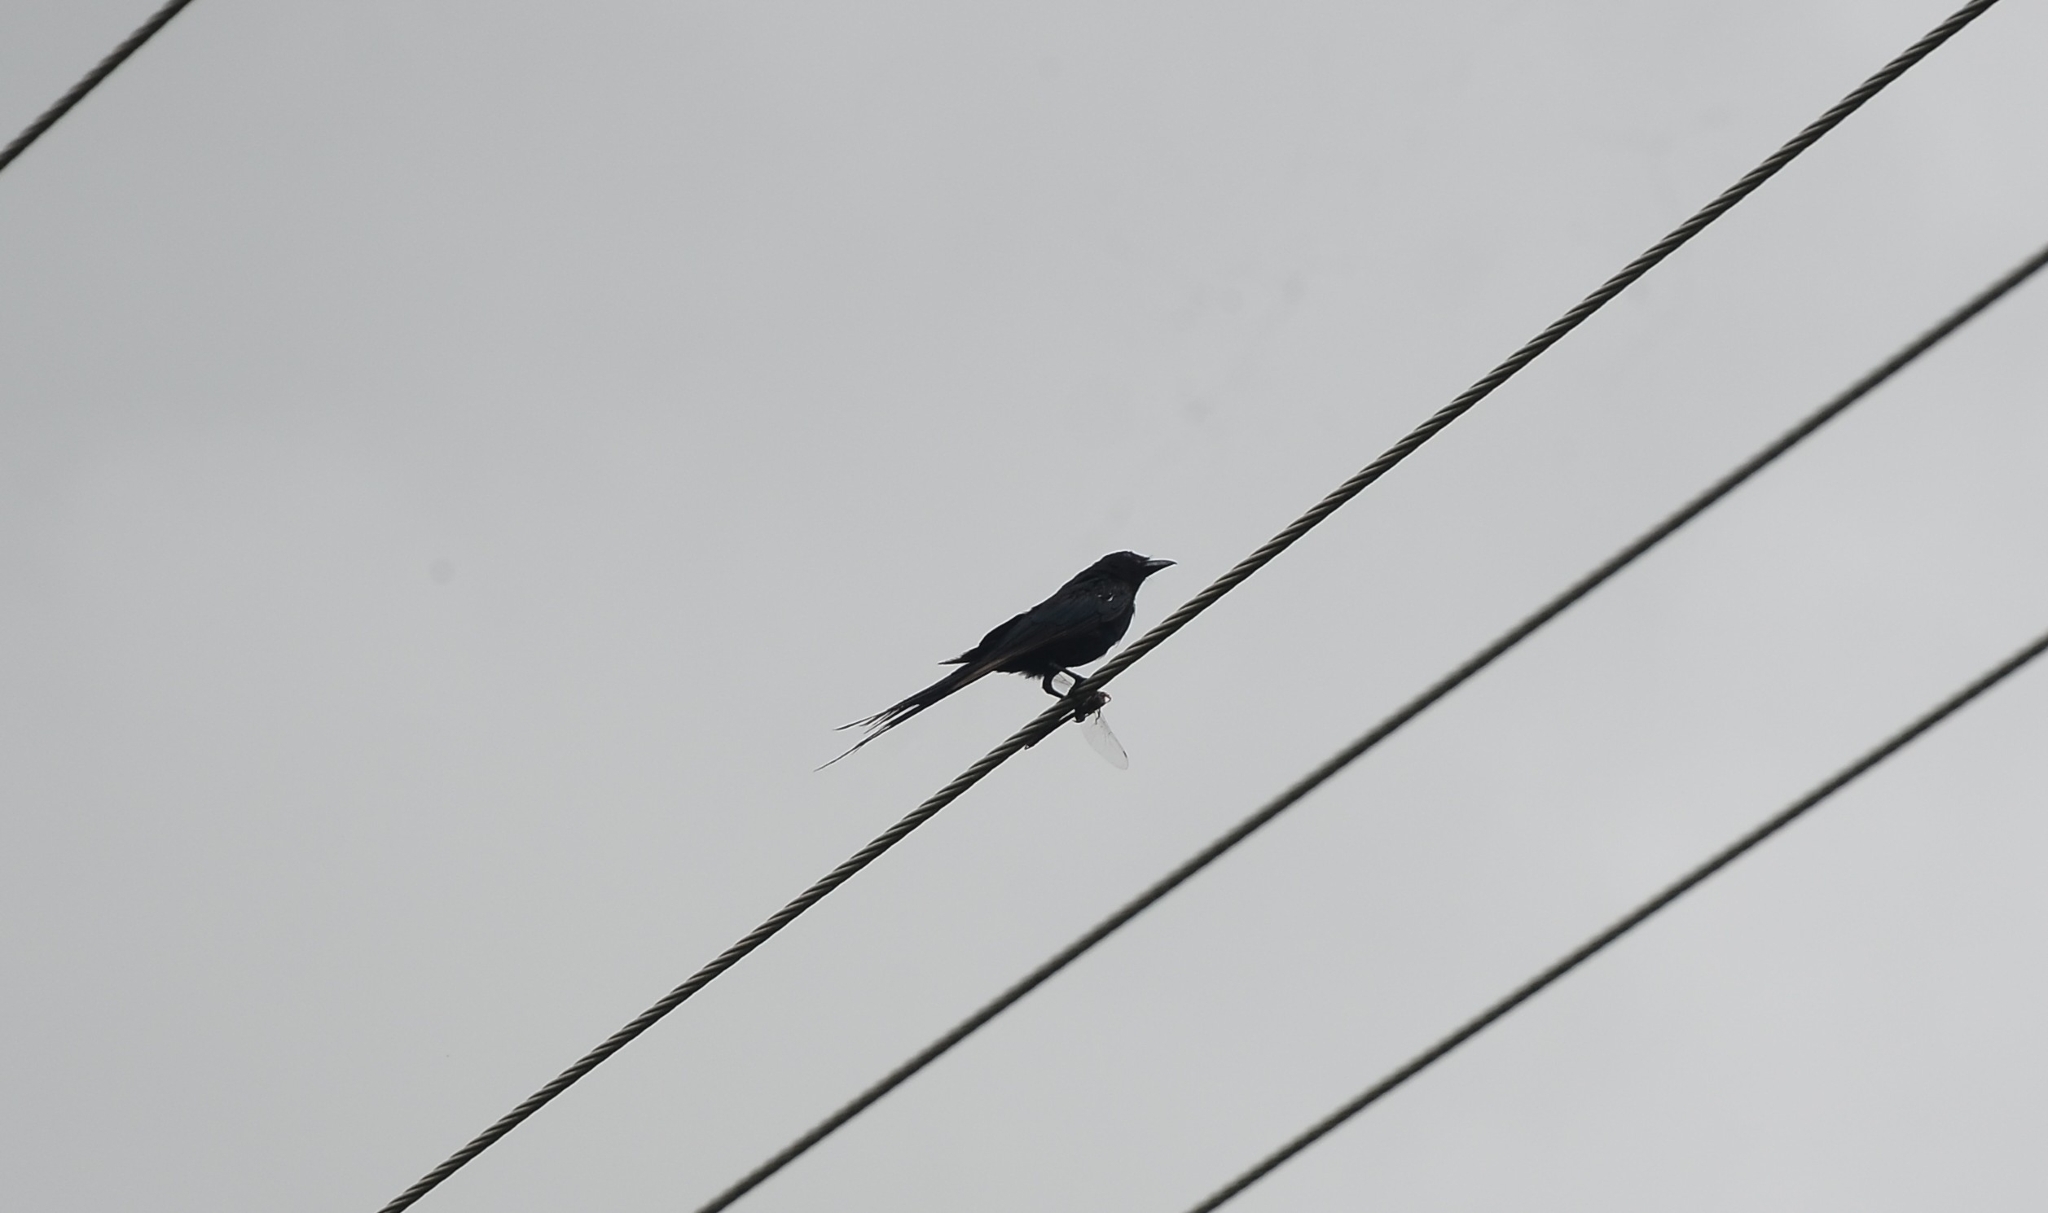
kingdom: Animalia
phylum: Chordata
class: Aves
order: Passeriformes
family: Dicruridae
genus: Dicrurus
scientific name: Dicrurus macrocercus
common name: Black drongo
